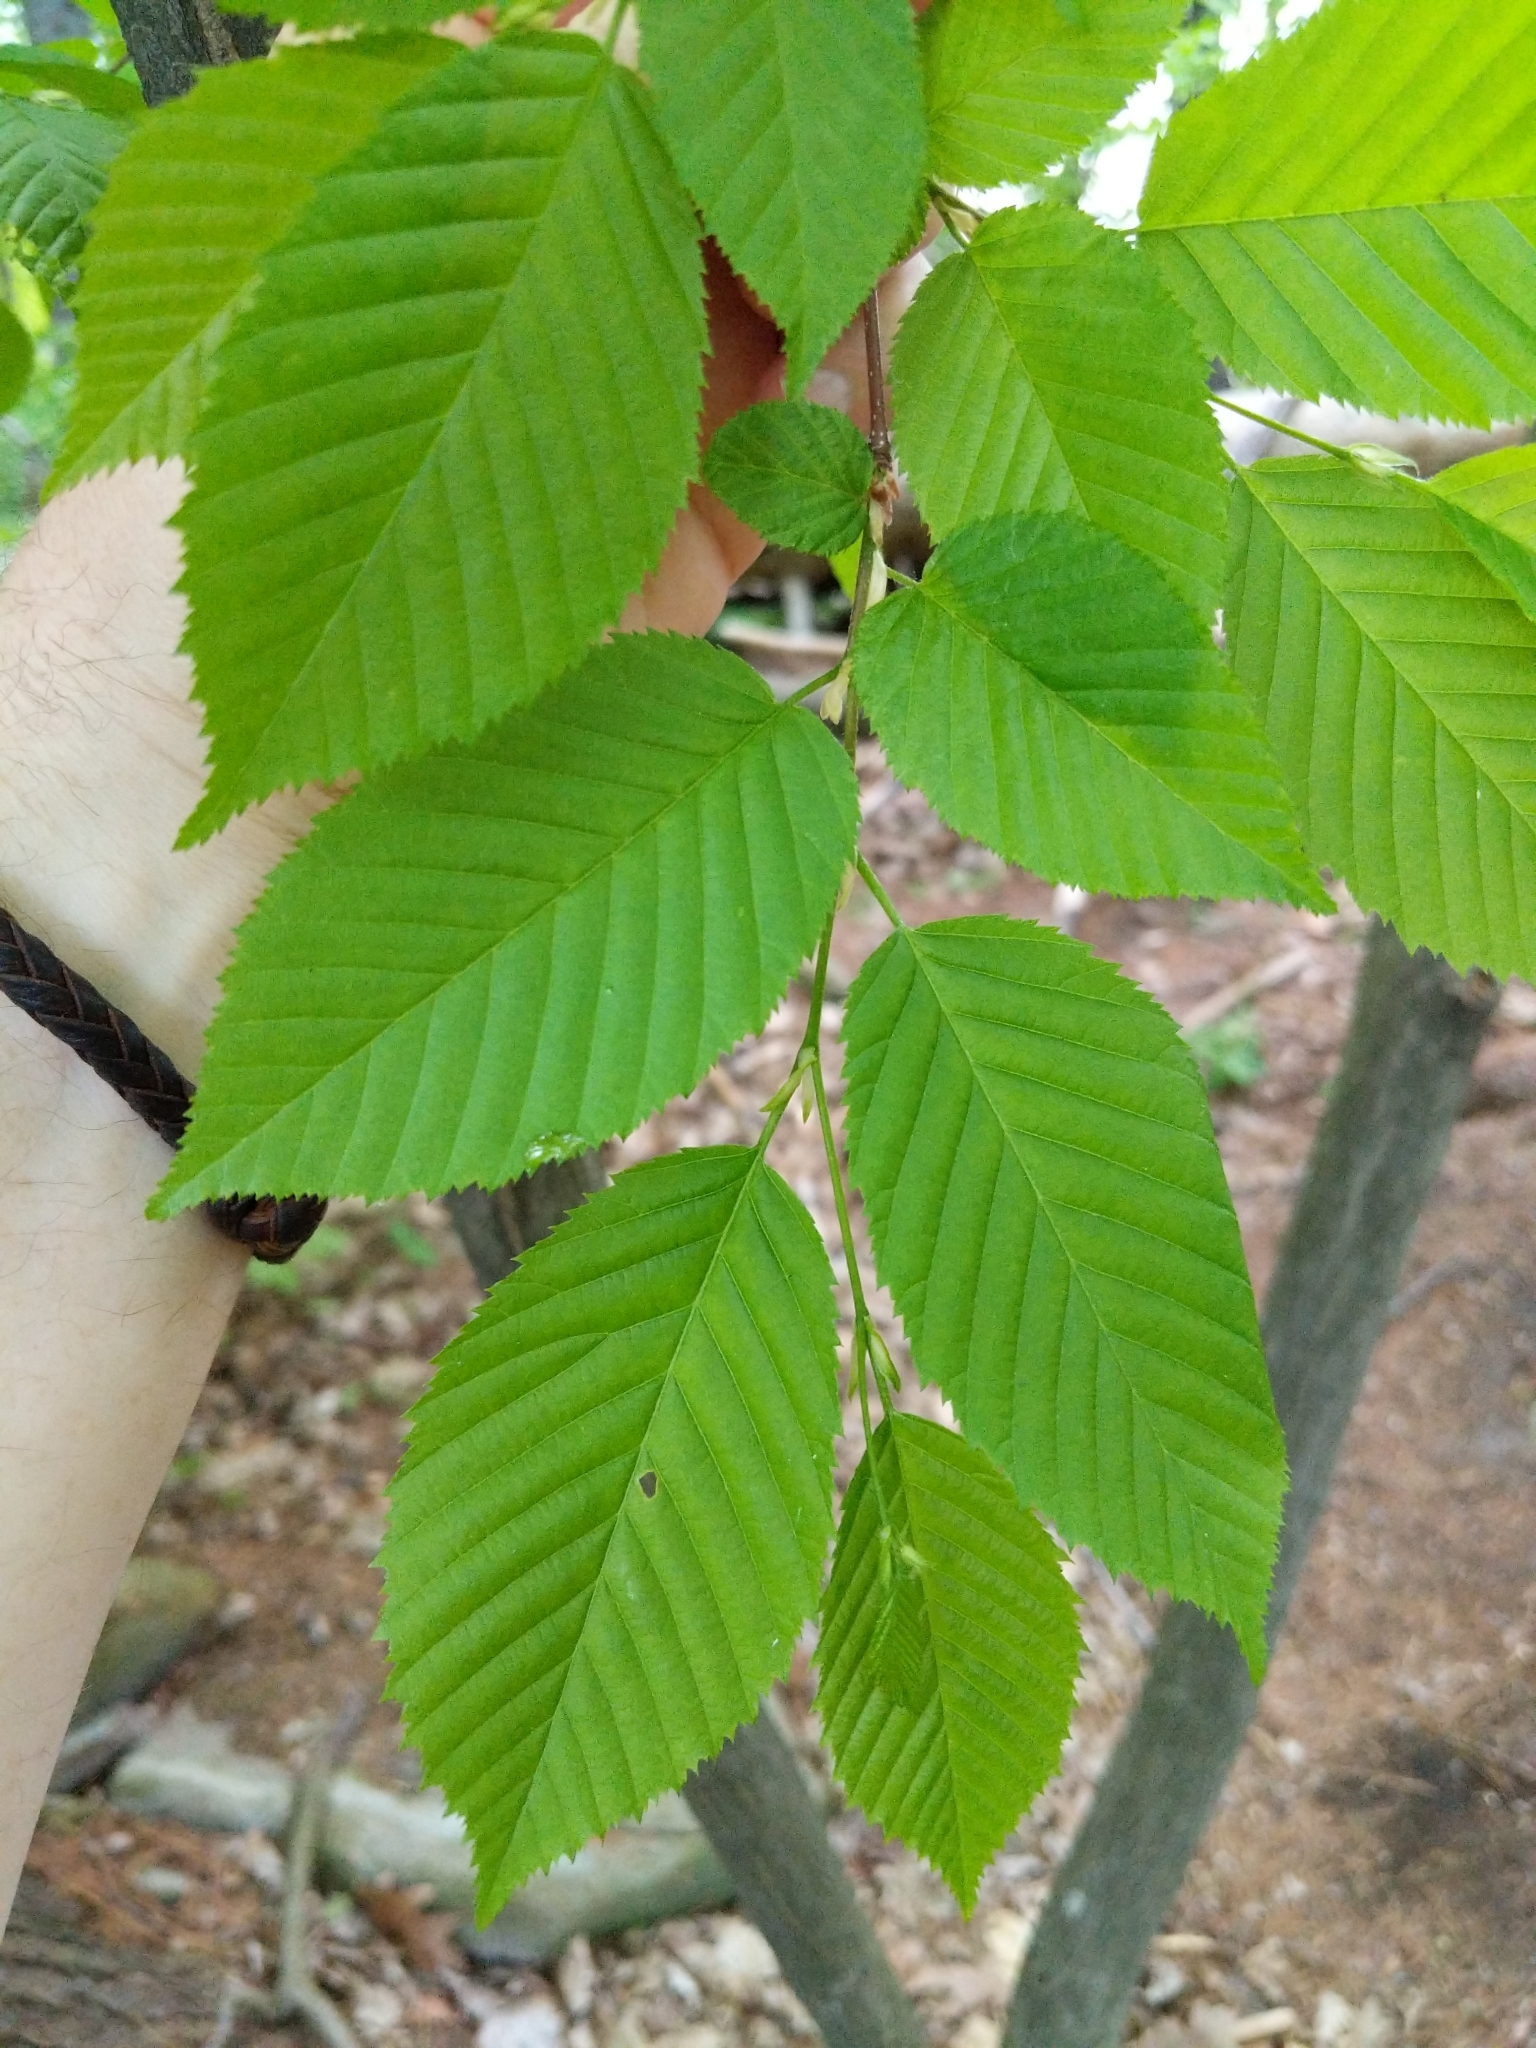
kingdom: Plantae
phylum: Tracheophyta
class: Magnoliopsida
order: Fagales
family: Betulaceae
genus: Carpinus
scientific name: Carpinus caroliniana
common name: American hornbeam
